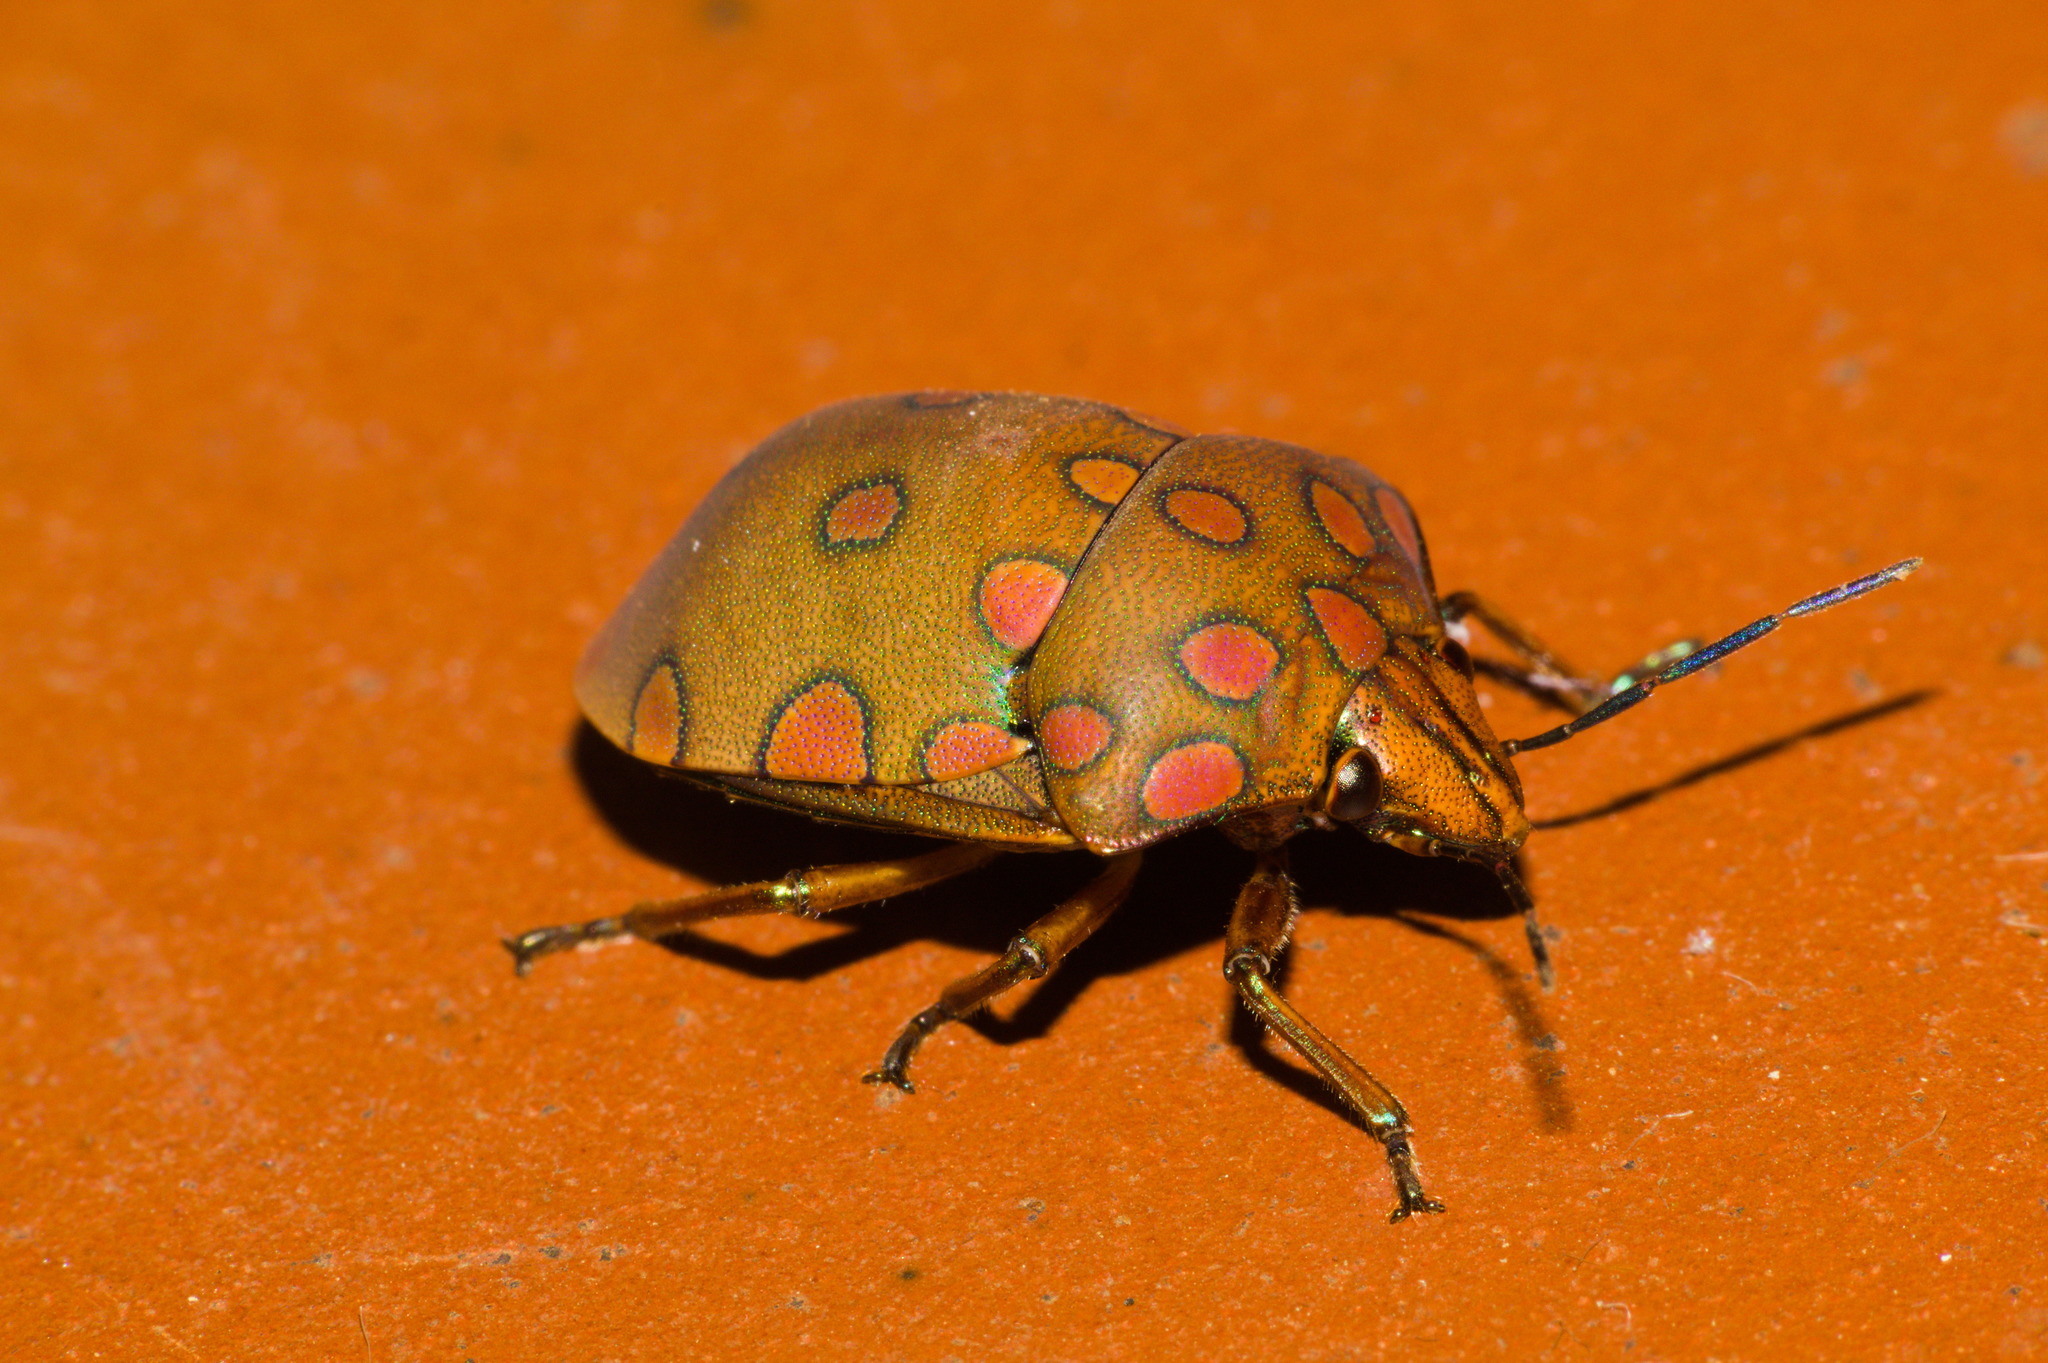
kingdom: Animalia
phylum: Arthropoda
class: Insecta
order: Hemiptera
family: Scutelleridae
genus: Pachycoris
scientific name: Pachycoris torridus
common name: Torrid jewel bug
